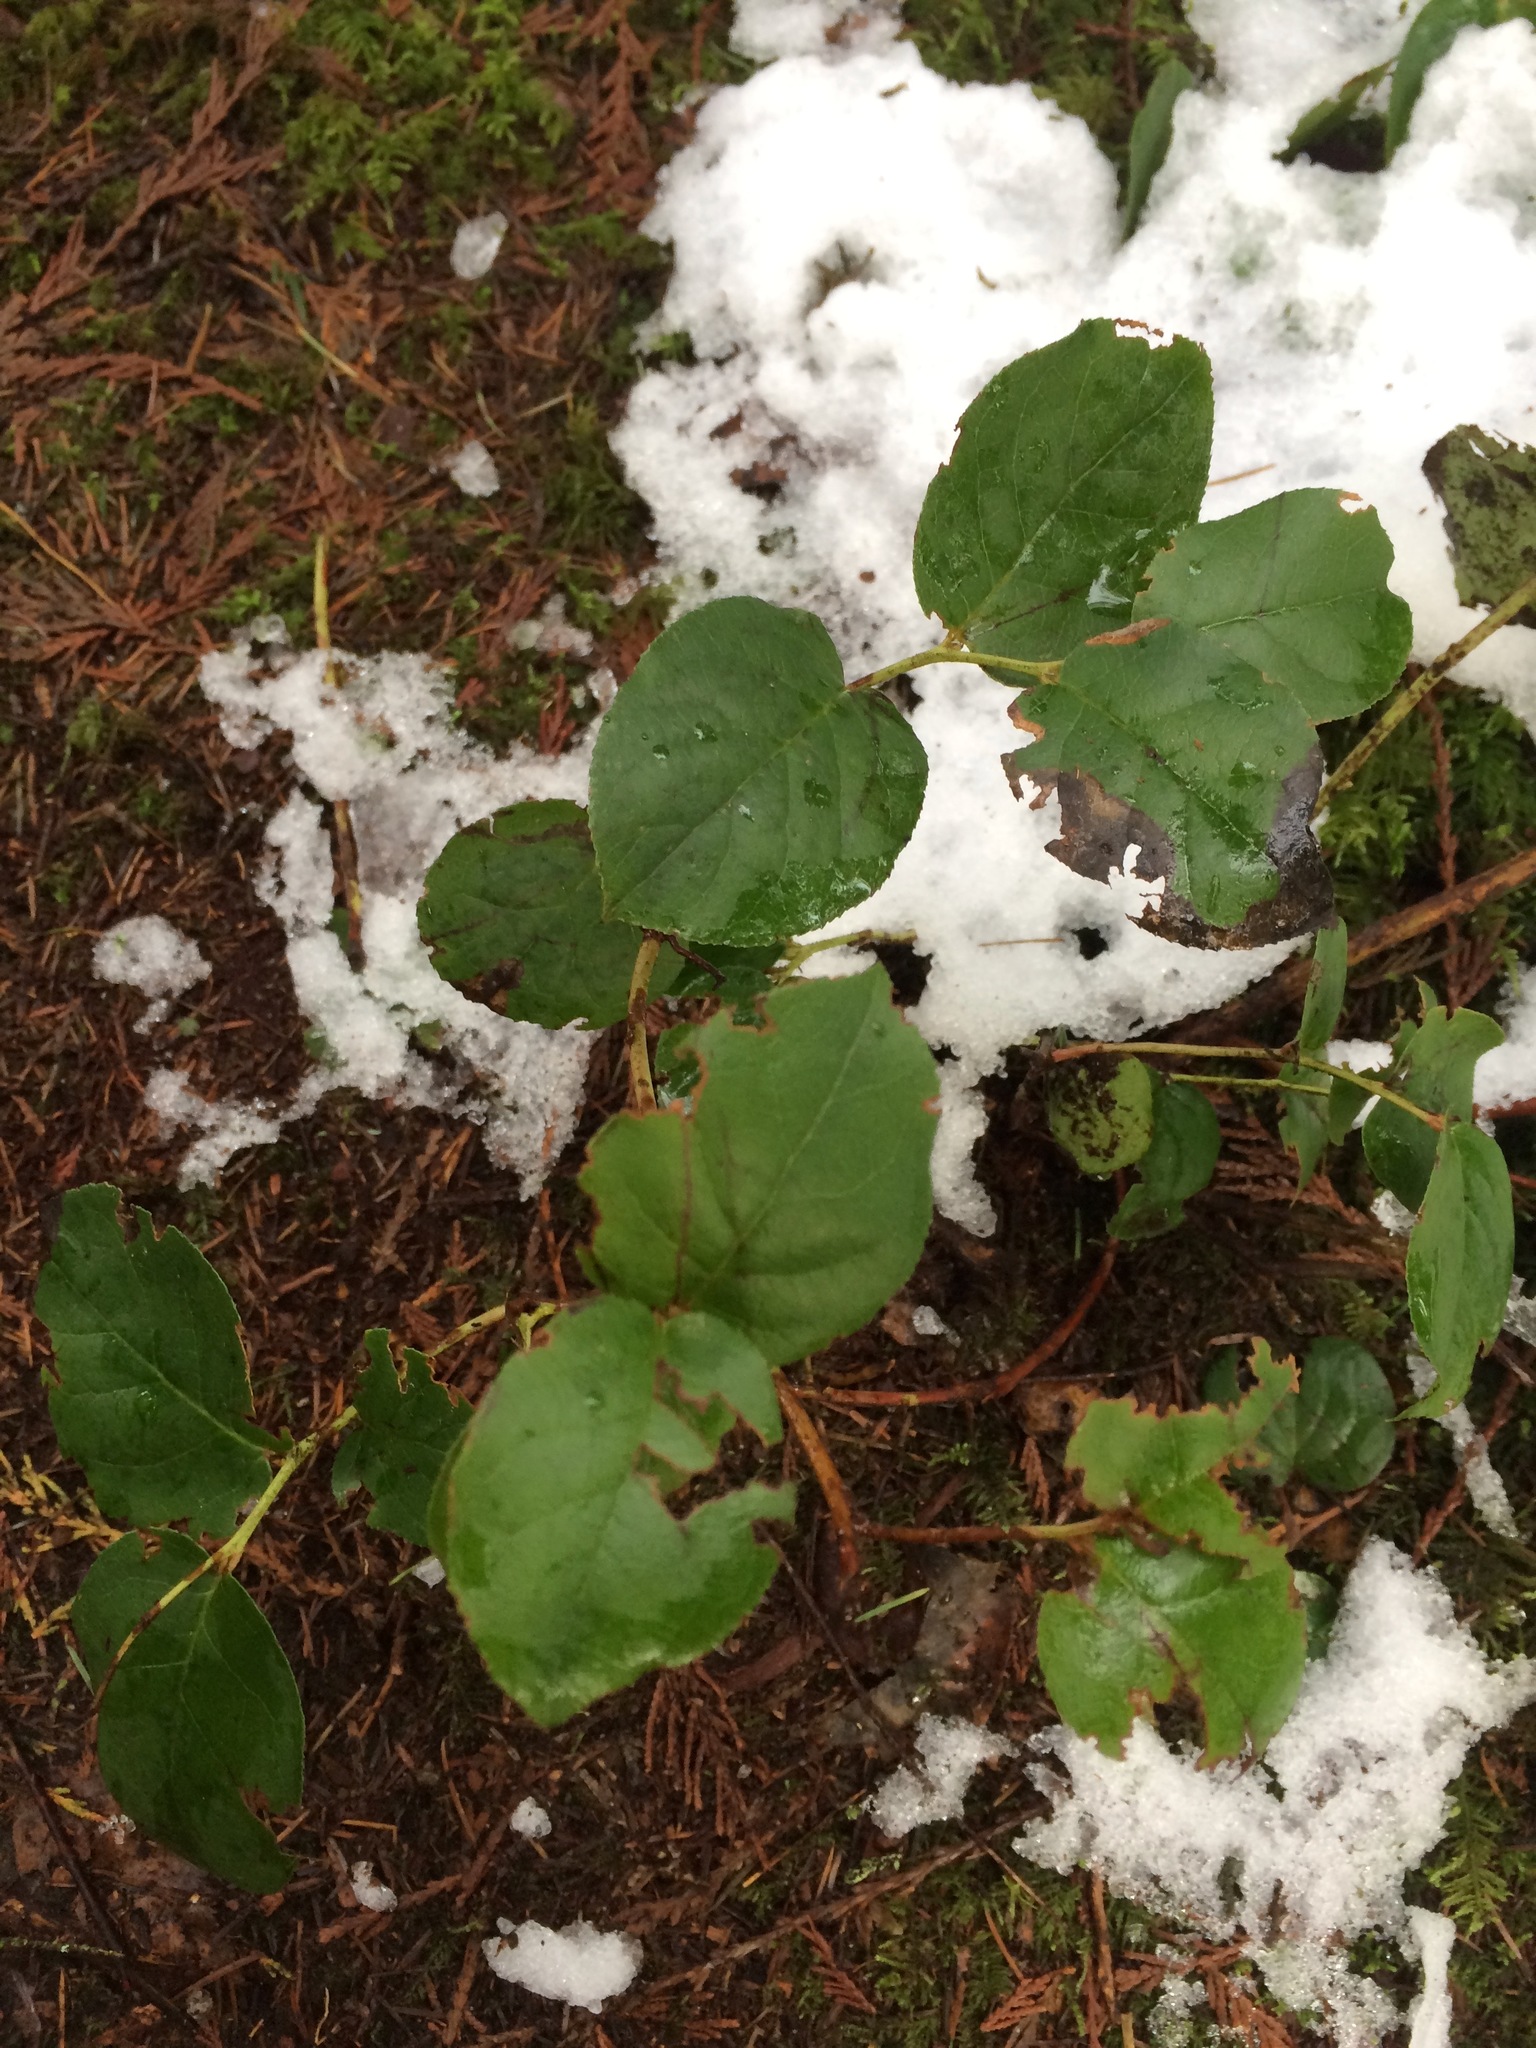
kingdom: Plantae
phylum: Tracheophyta
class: Magnoliopsida
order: Ericales
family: Ericaceae
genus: Gaultheria
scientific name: Gaultheria shallon
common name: Shallon
